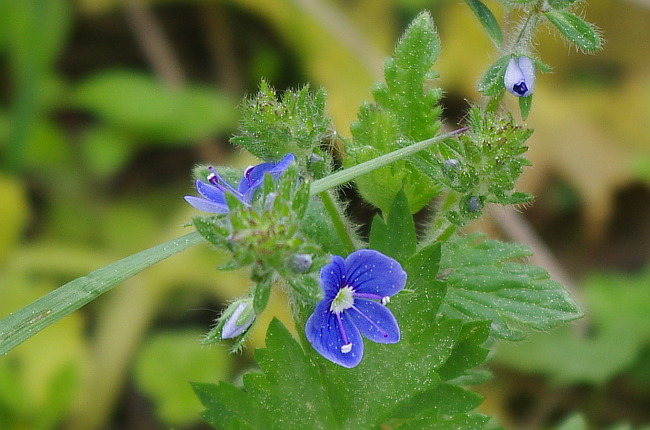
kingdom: Plantae
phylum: Tracheophyta
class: Magnoliopsida
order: Lamiales
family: Plantaginaceae
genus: Veronica
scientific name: Veronica chamaedrys
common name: Germander speedwell
